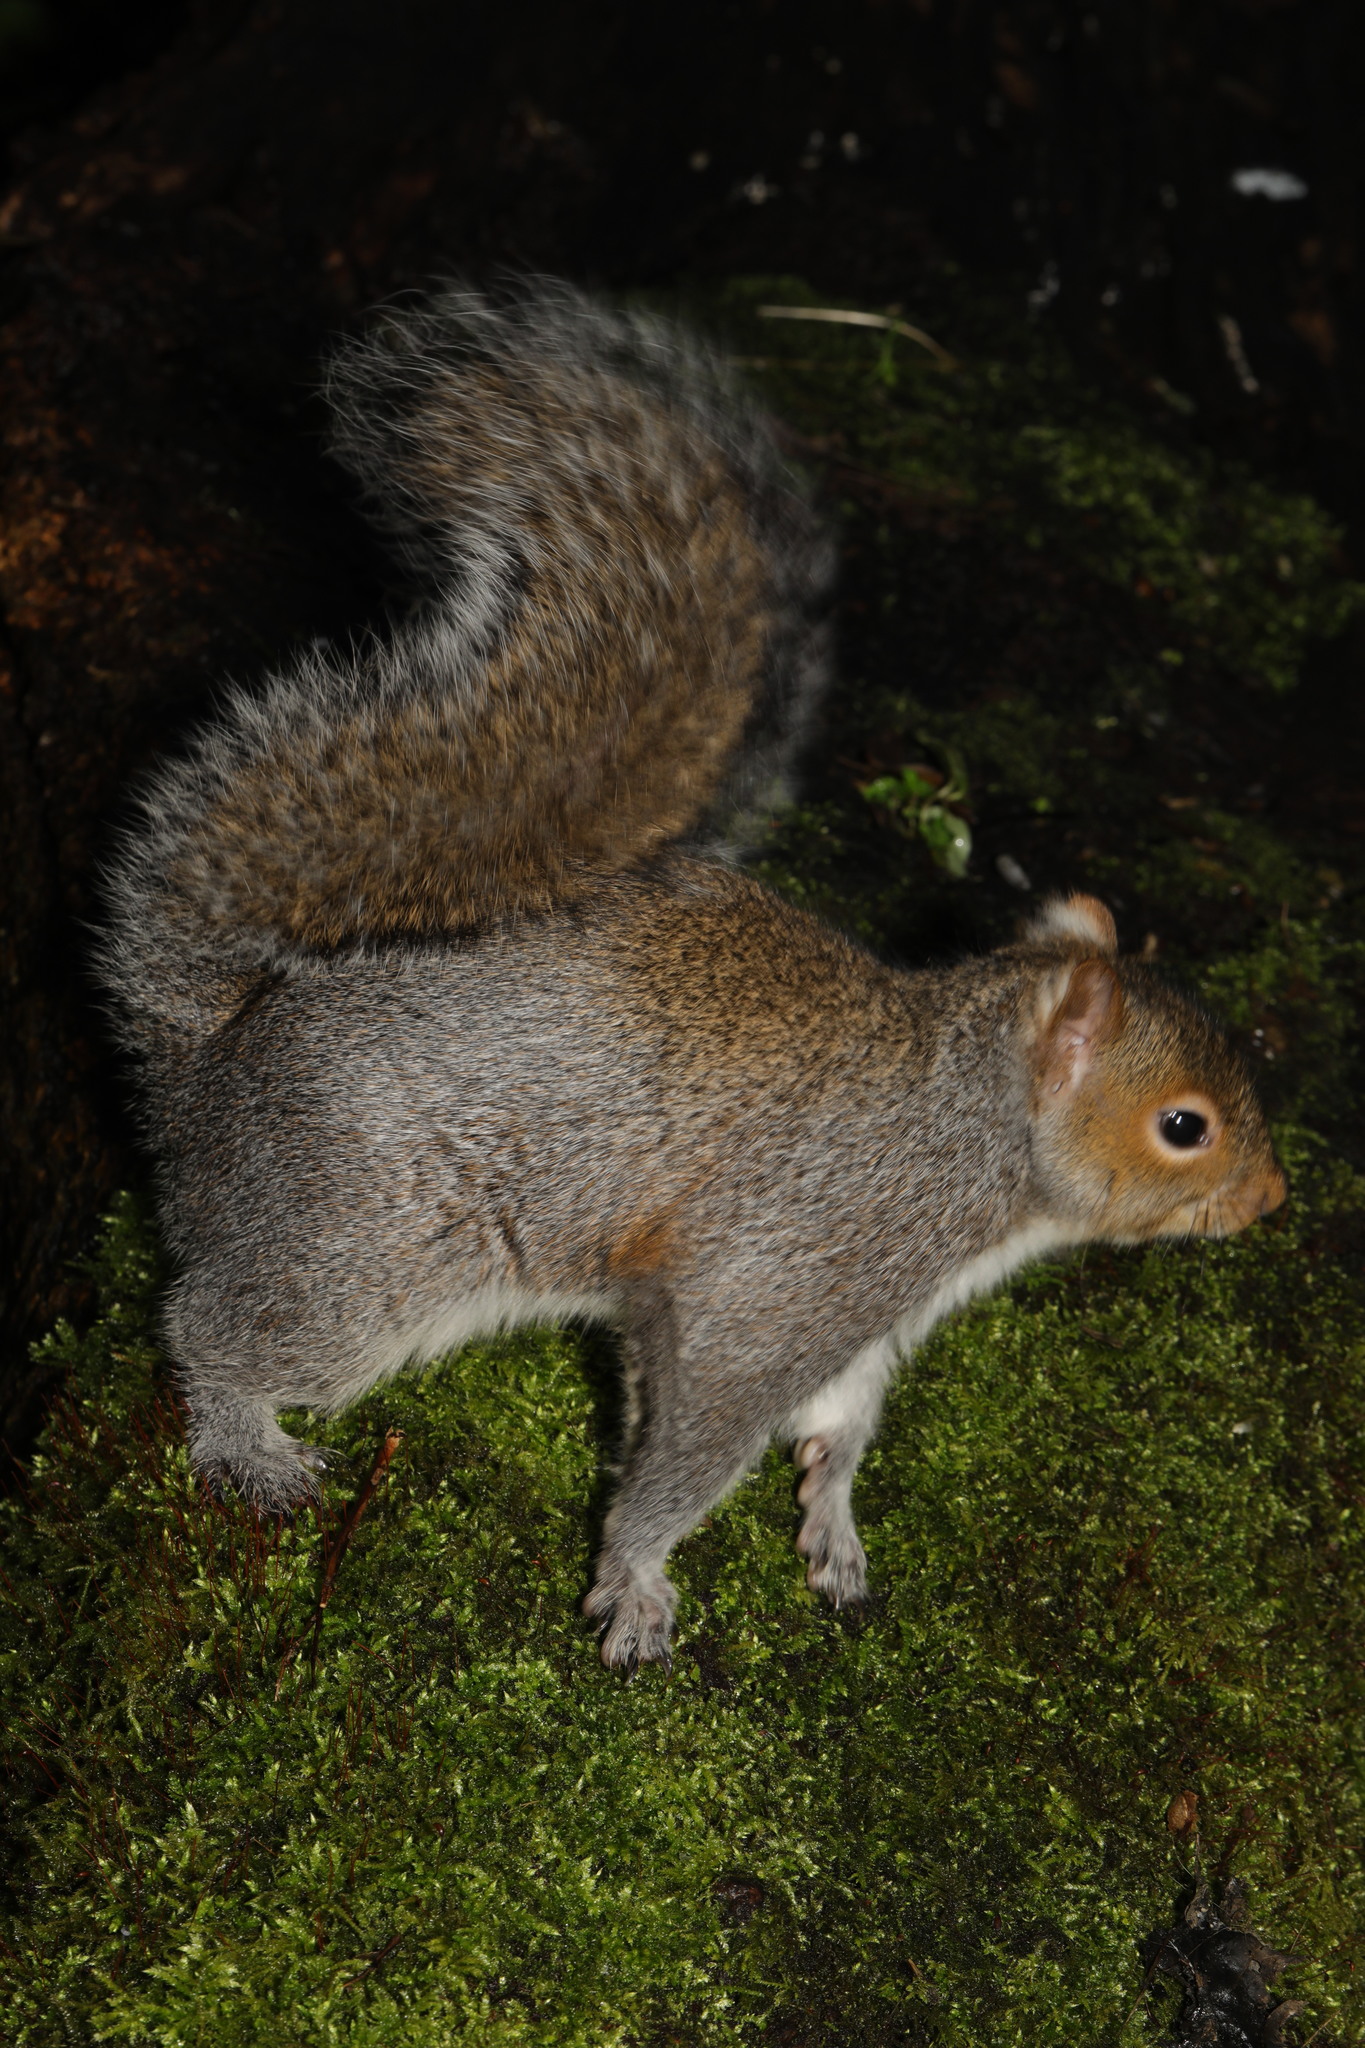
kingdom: Animalia
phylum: Chordata
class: Mammalia
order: Rodentia
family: Sciuridae
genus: Sciurus
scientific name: Sciurus carolinensis
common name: Eastern gray squirrel
